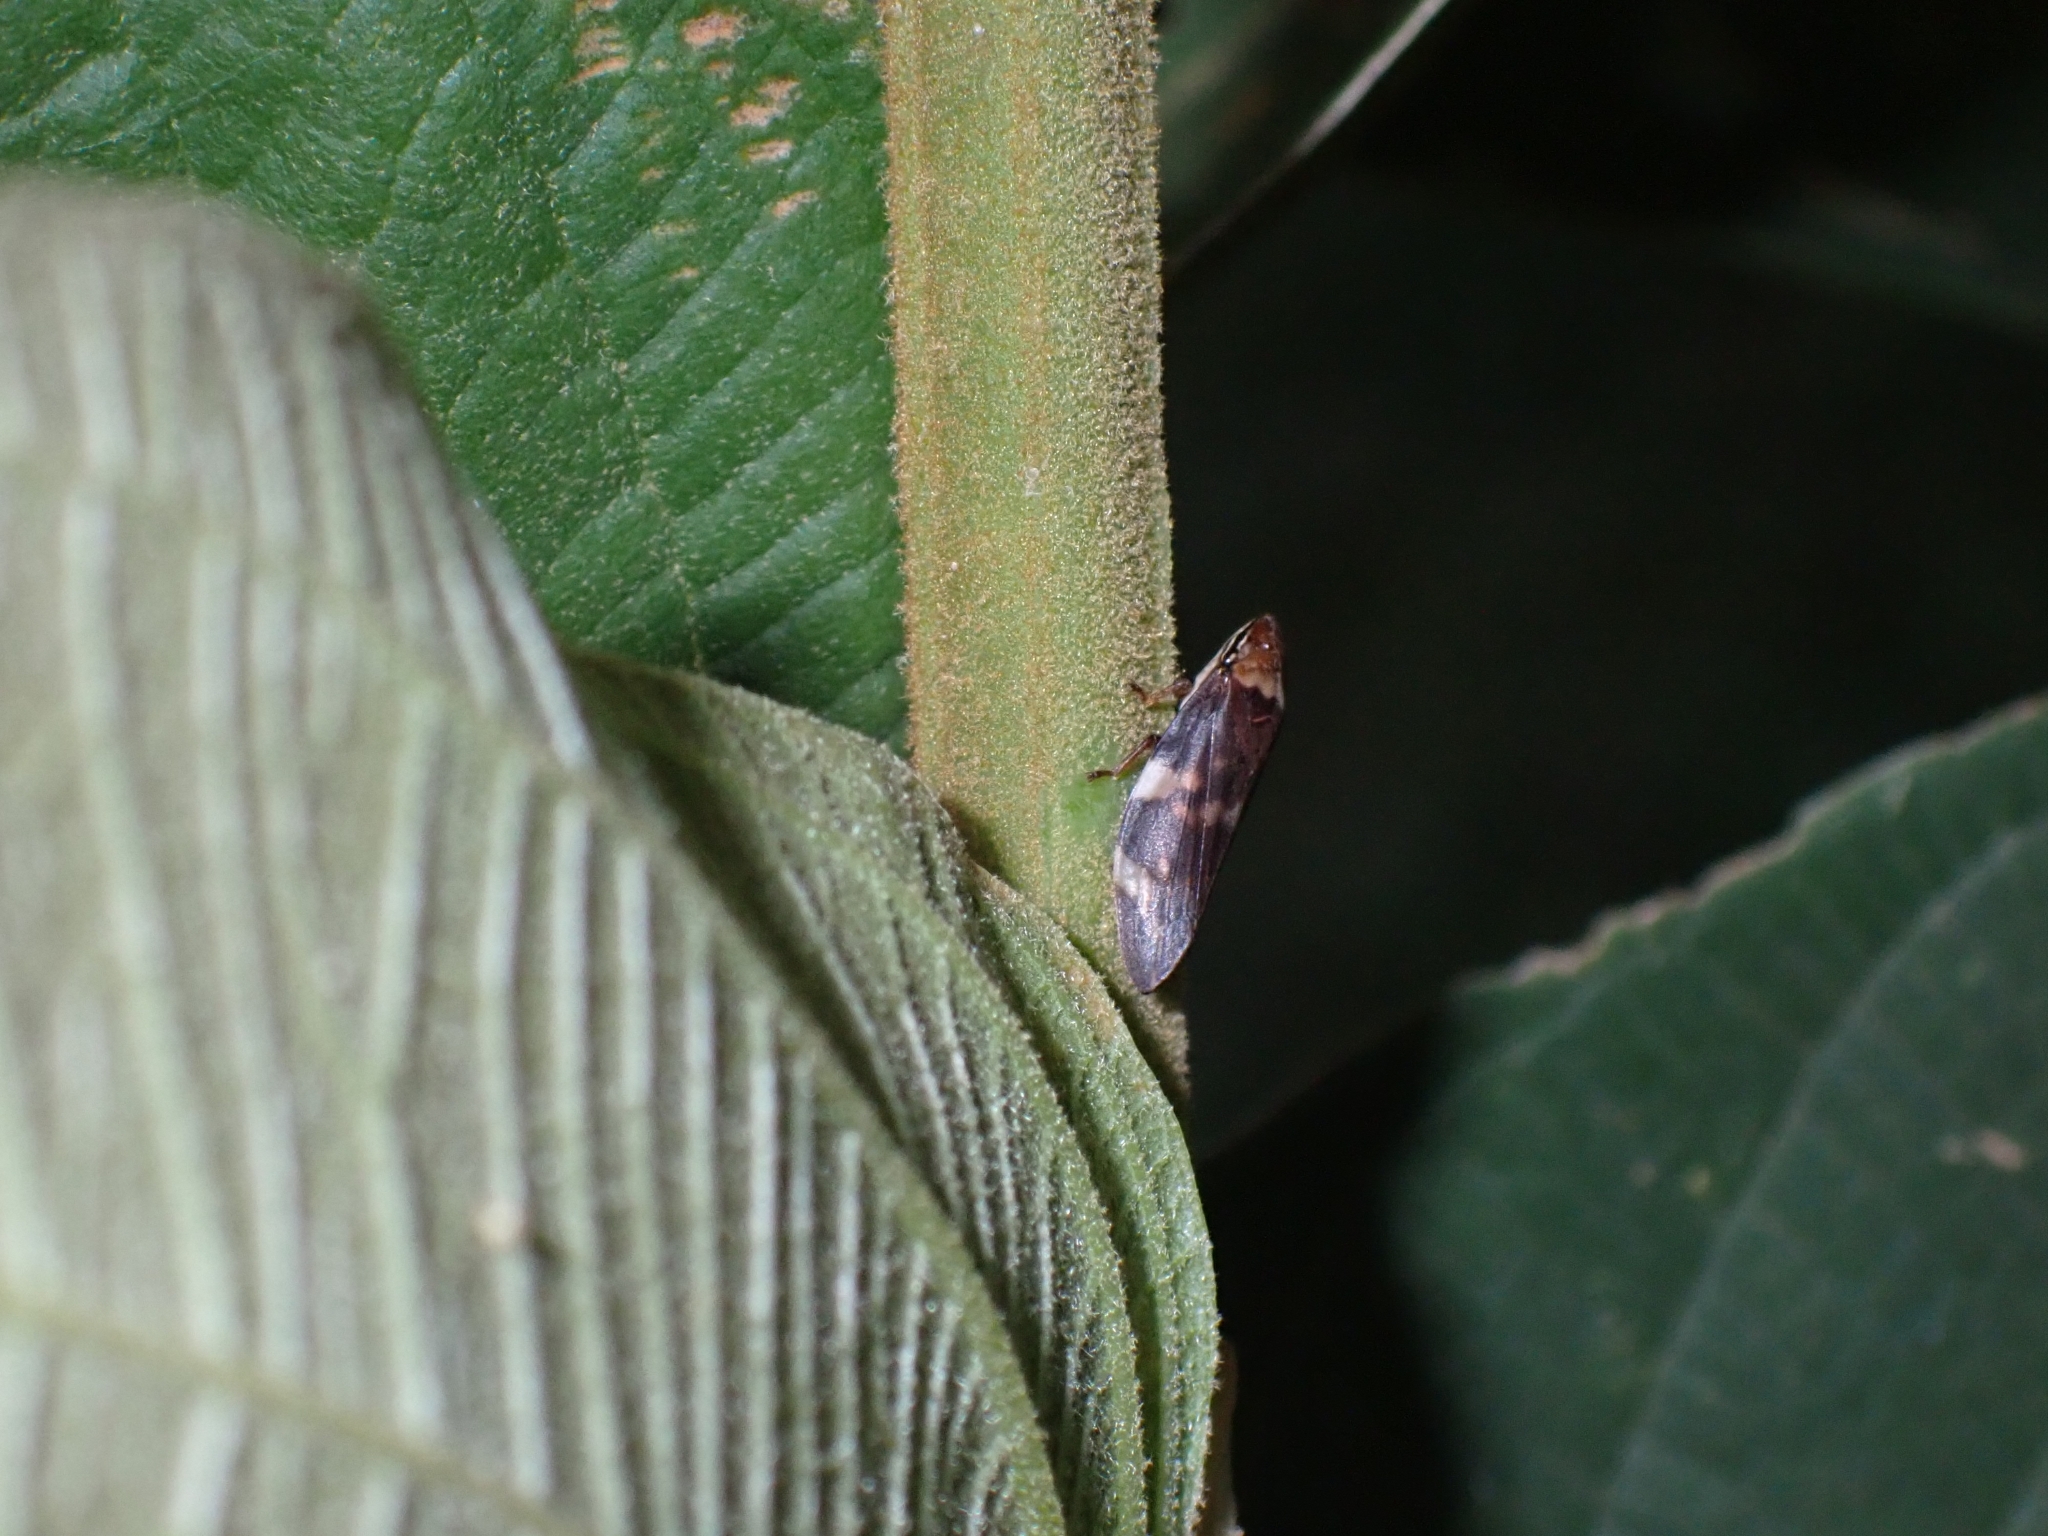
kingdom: Animalia
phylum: Arthropoda
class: Insecta
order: Hemiptera
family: Aphrophoridae
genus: Ptyelinellus
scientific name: Ptyelinellus praefractus
